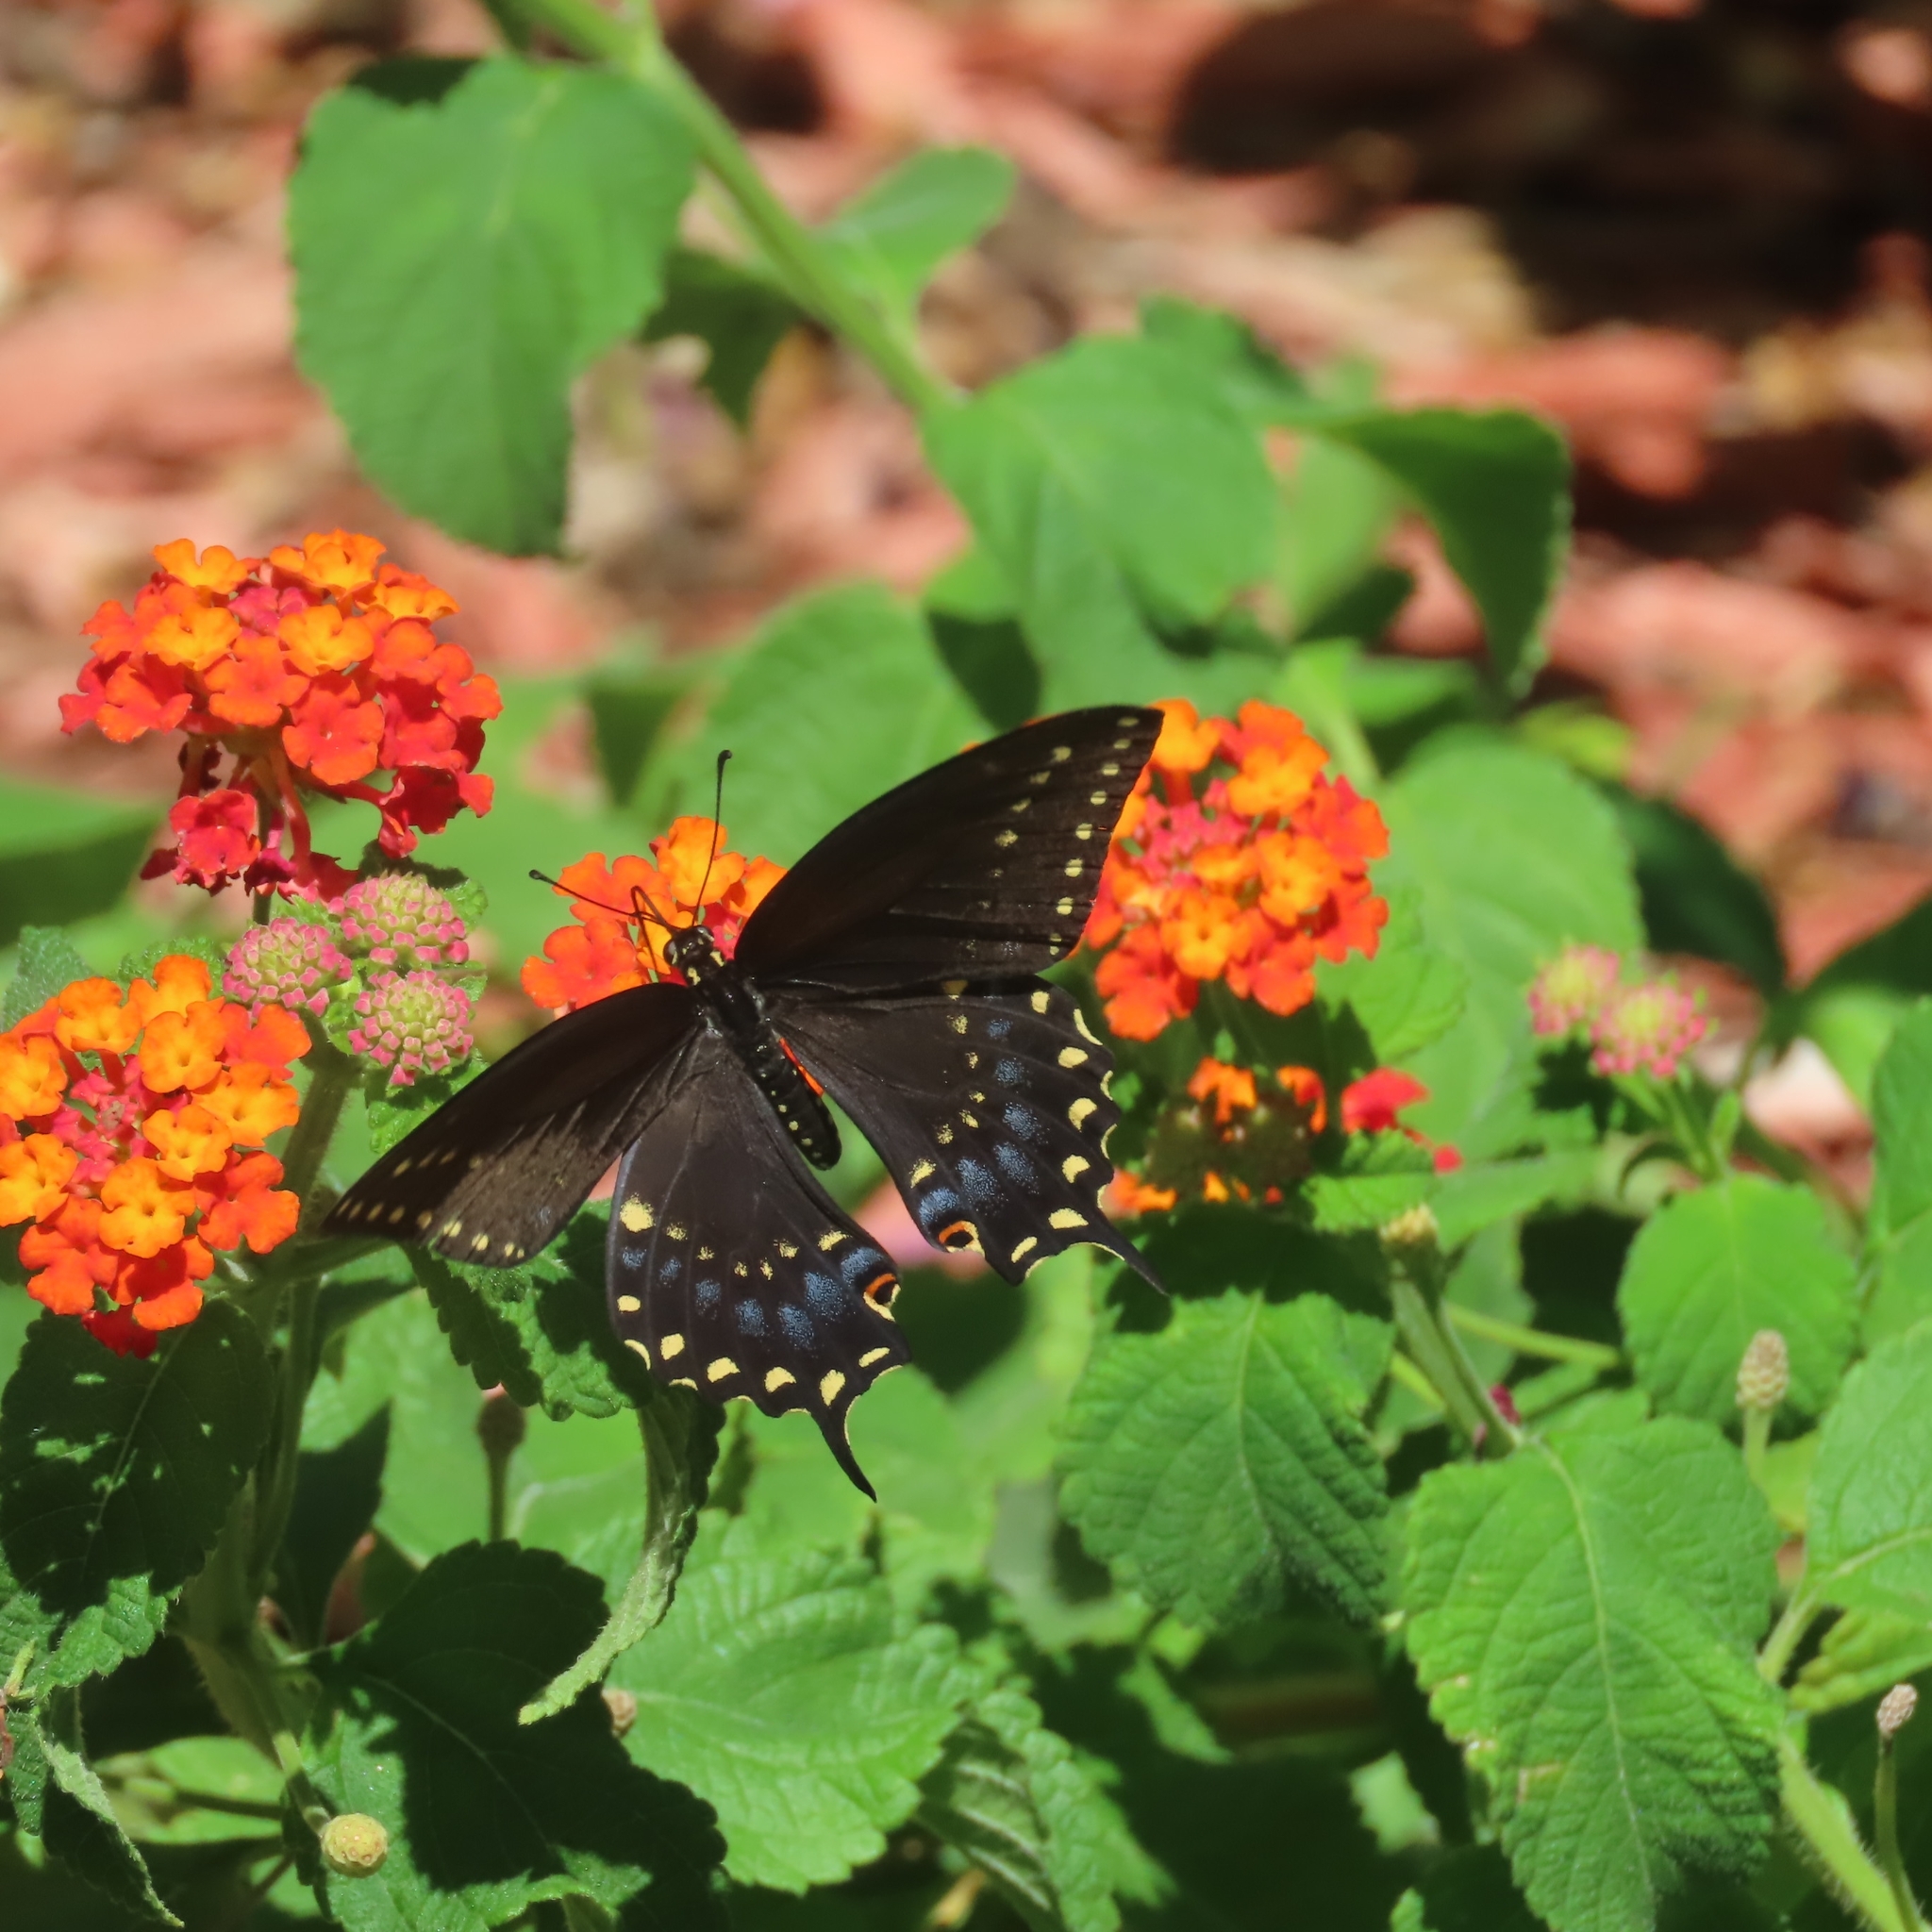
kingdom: Animalia
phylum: Arthropoda
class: Insecta
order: Lepidoptera
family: Papilionidae
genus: Papilio
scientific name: Papilio polyxenes
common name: Black swallowtail
